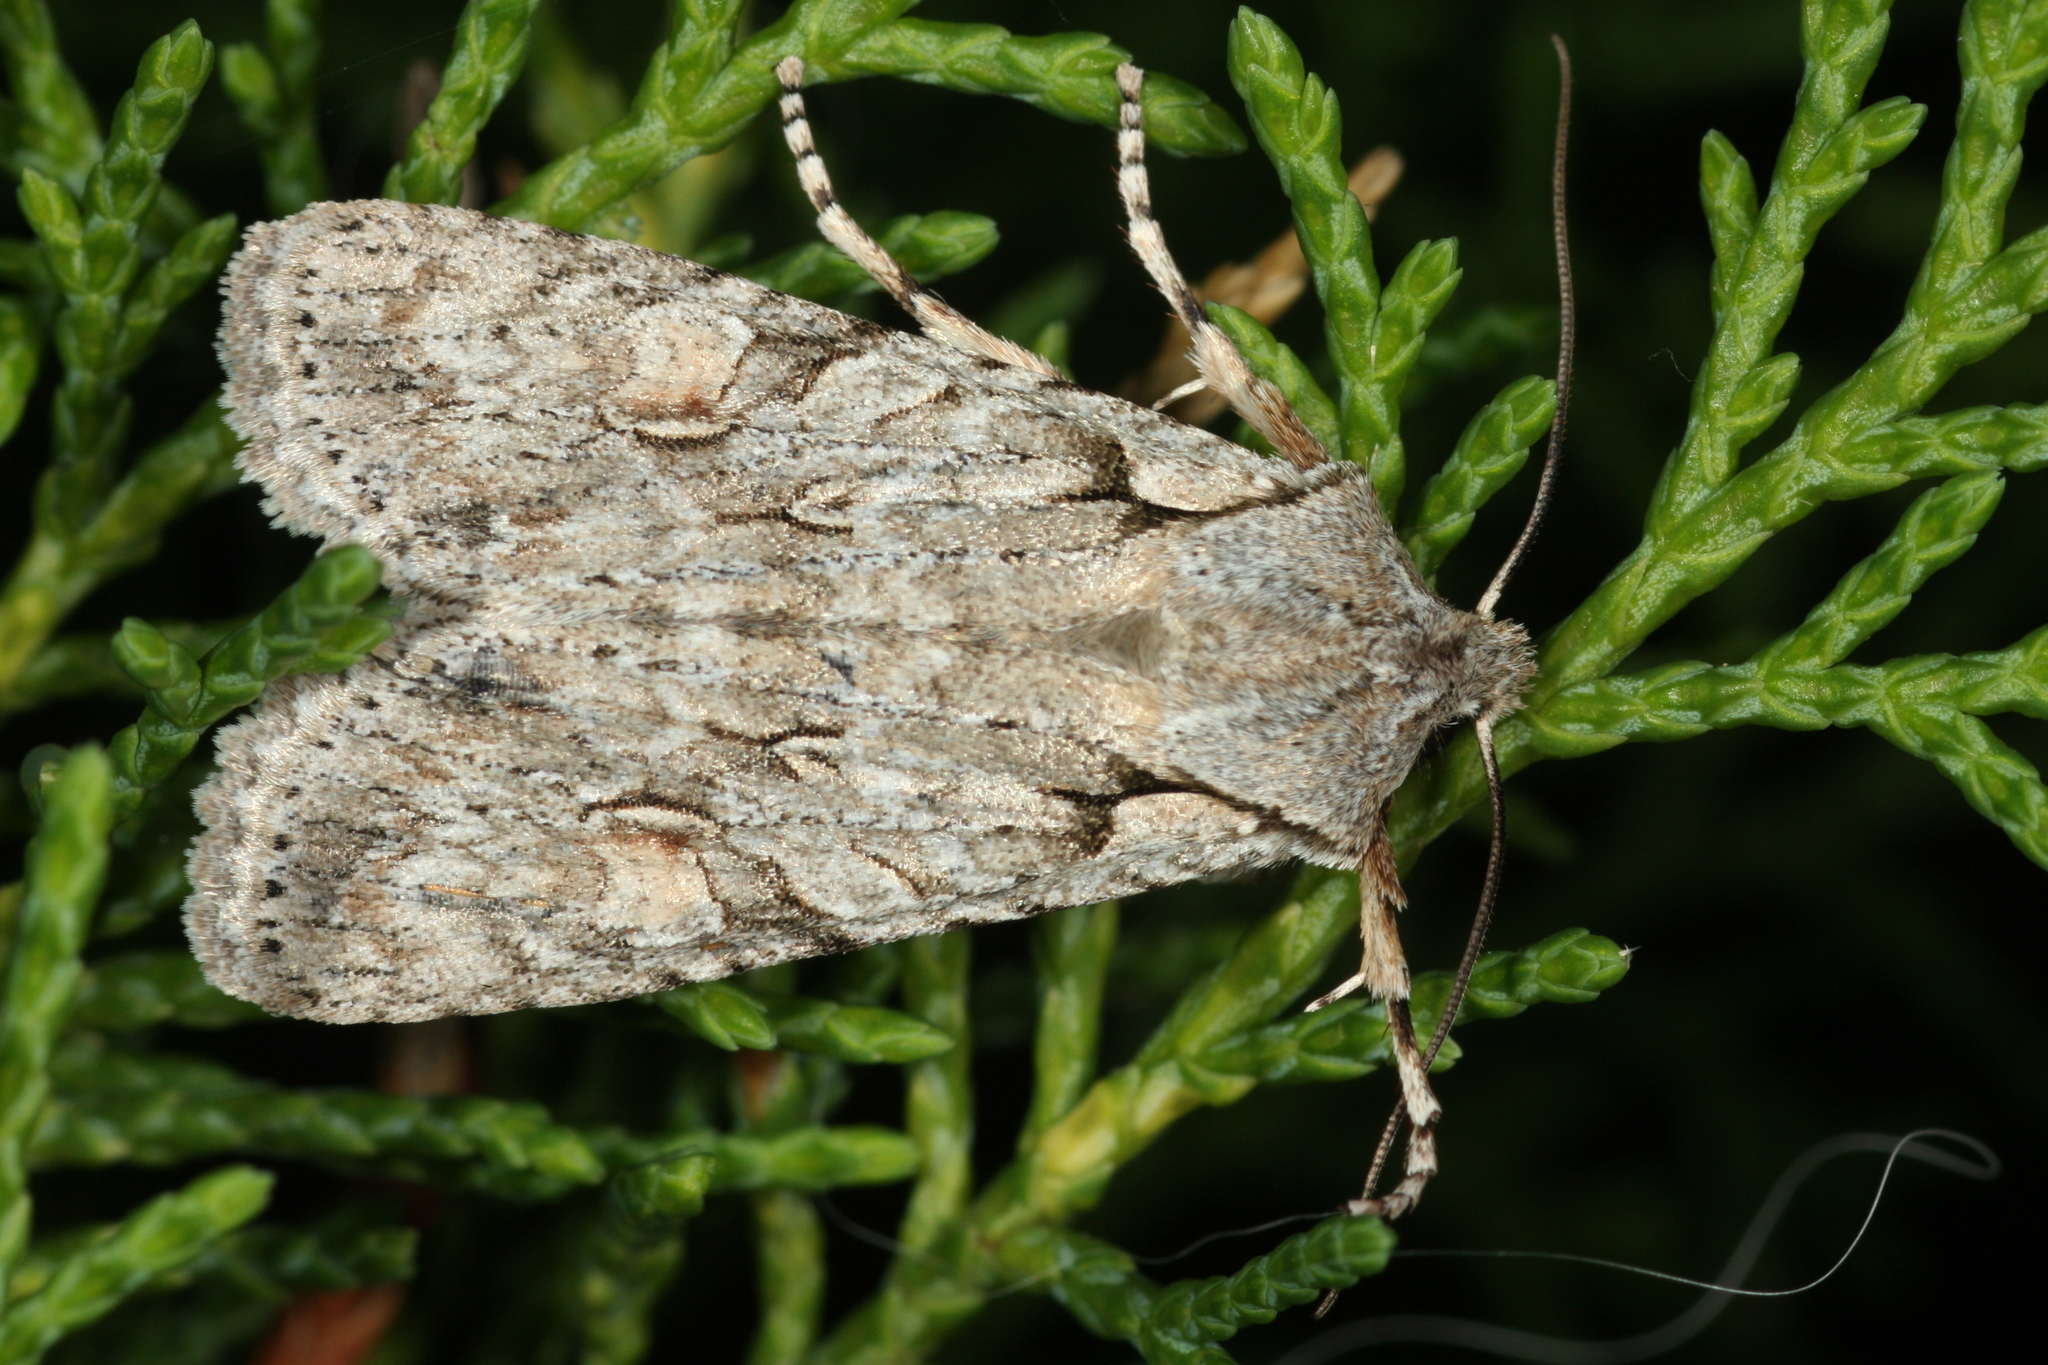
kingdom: Animalia
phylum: Arthropoda
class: Insecta
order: Lepidoptera
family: Noctuidae
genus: Lithophane
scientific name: Lithophane ornitopus
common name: Grey shoulder-knot
